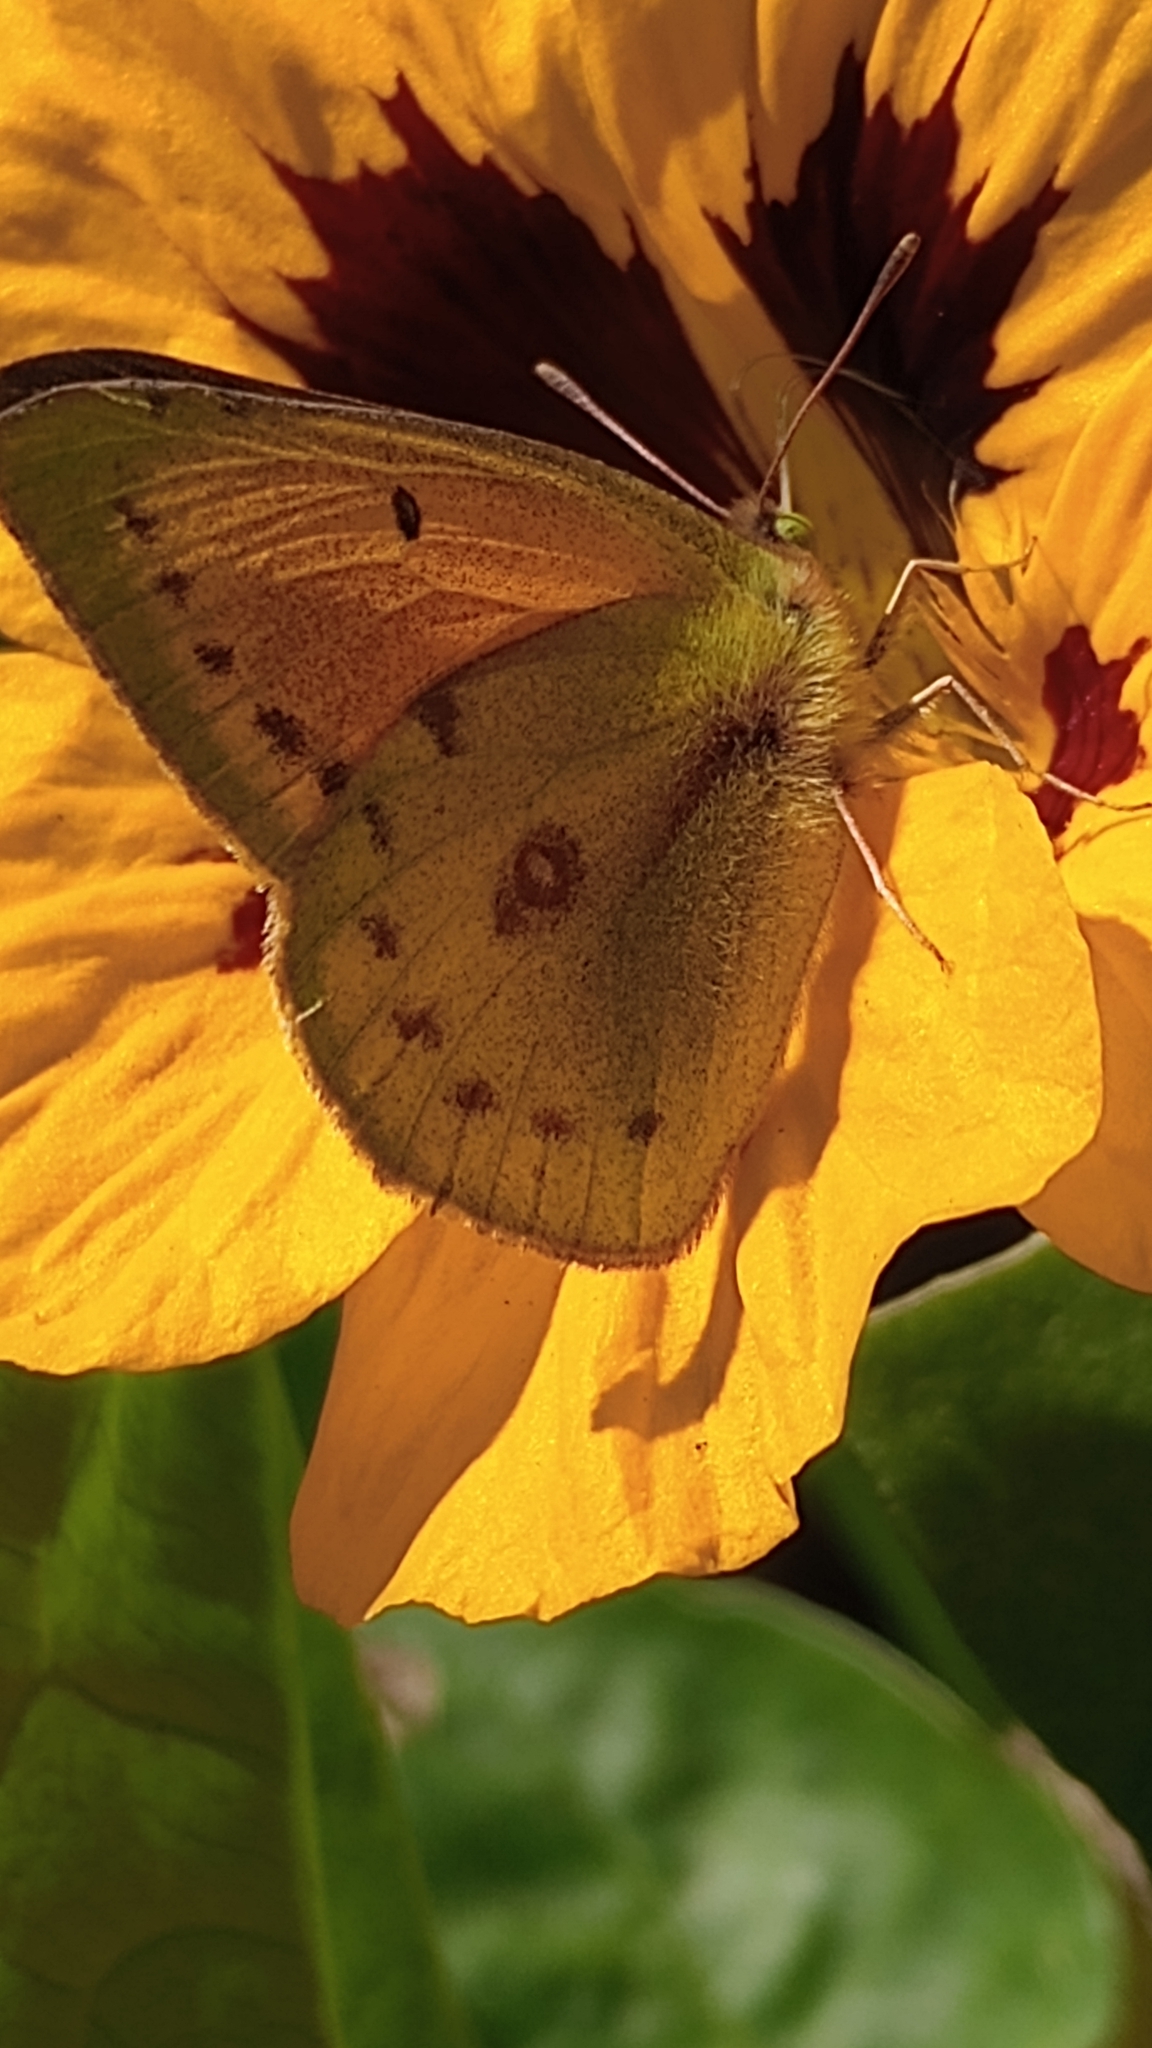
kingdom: Animalia
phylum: Arthropoda
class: Insecta
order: Lepidoptera
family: Pieridae
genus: Colias
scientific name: Colias lesbia
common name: Lesbia clouded yellow
